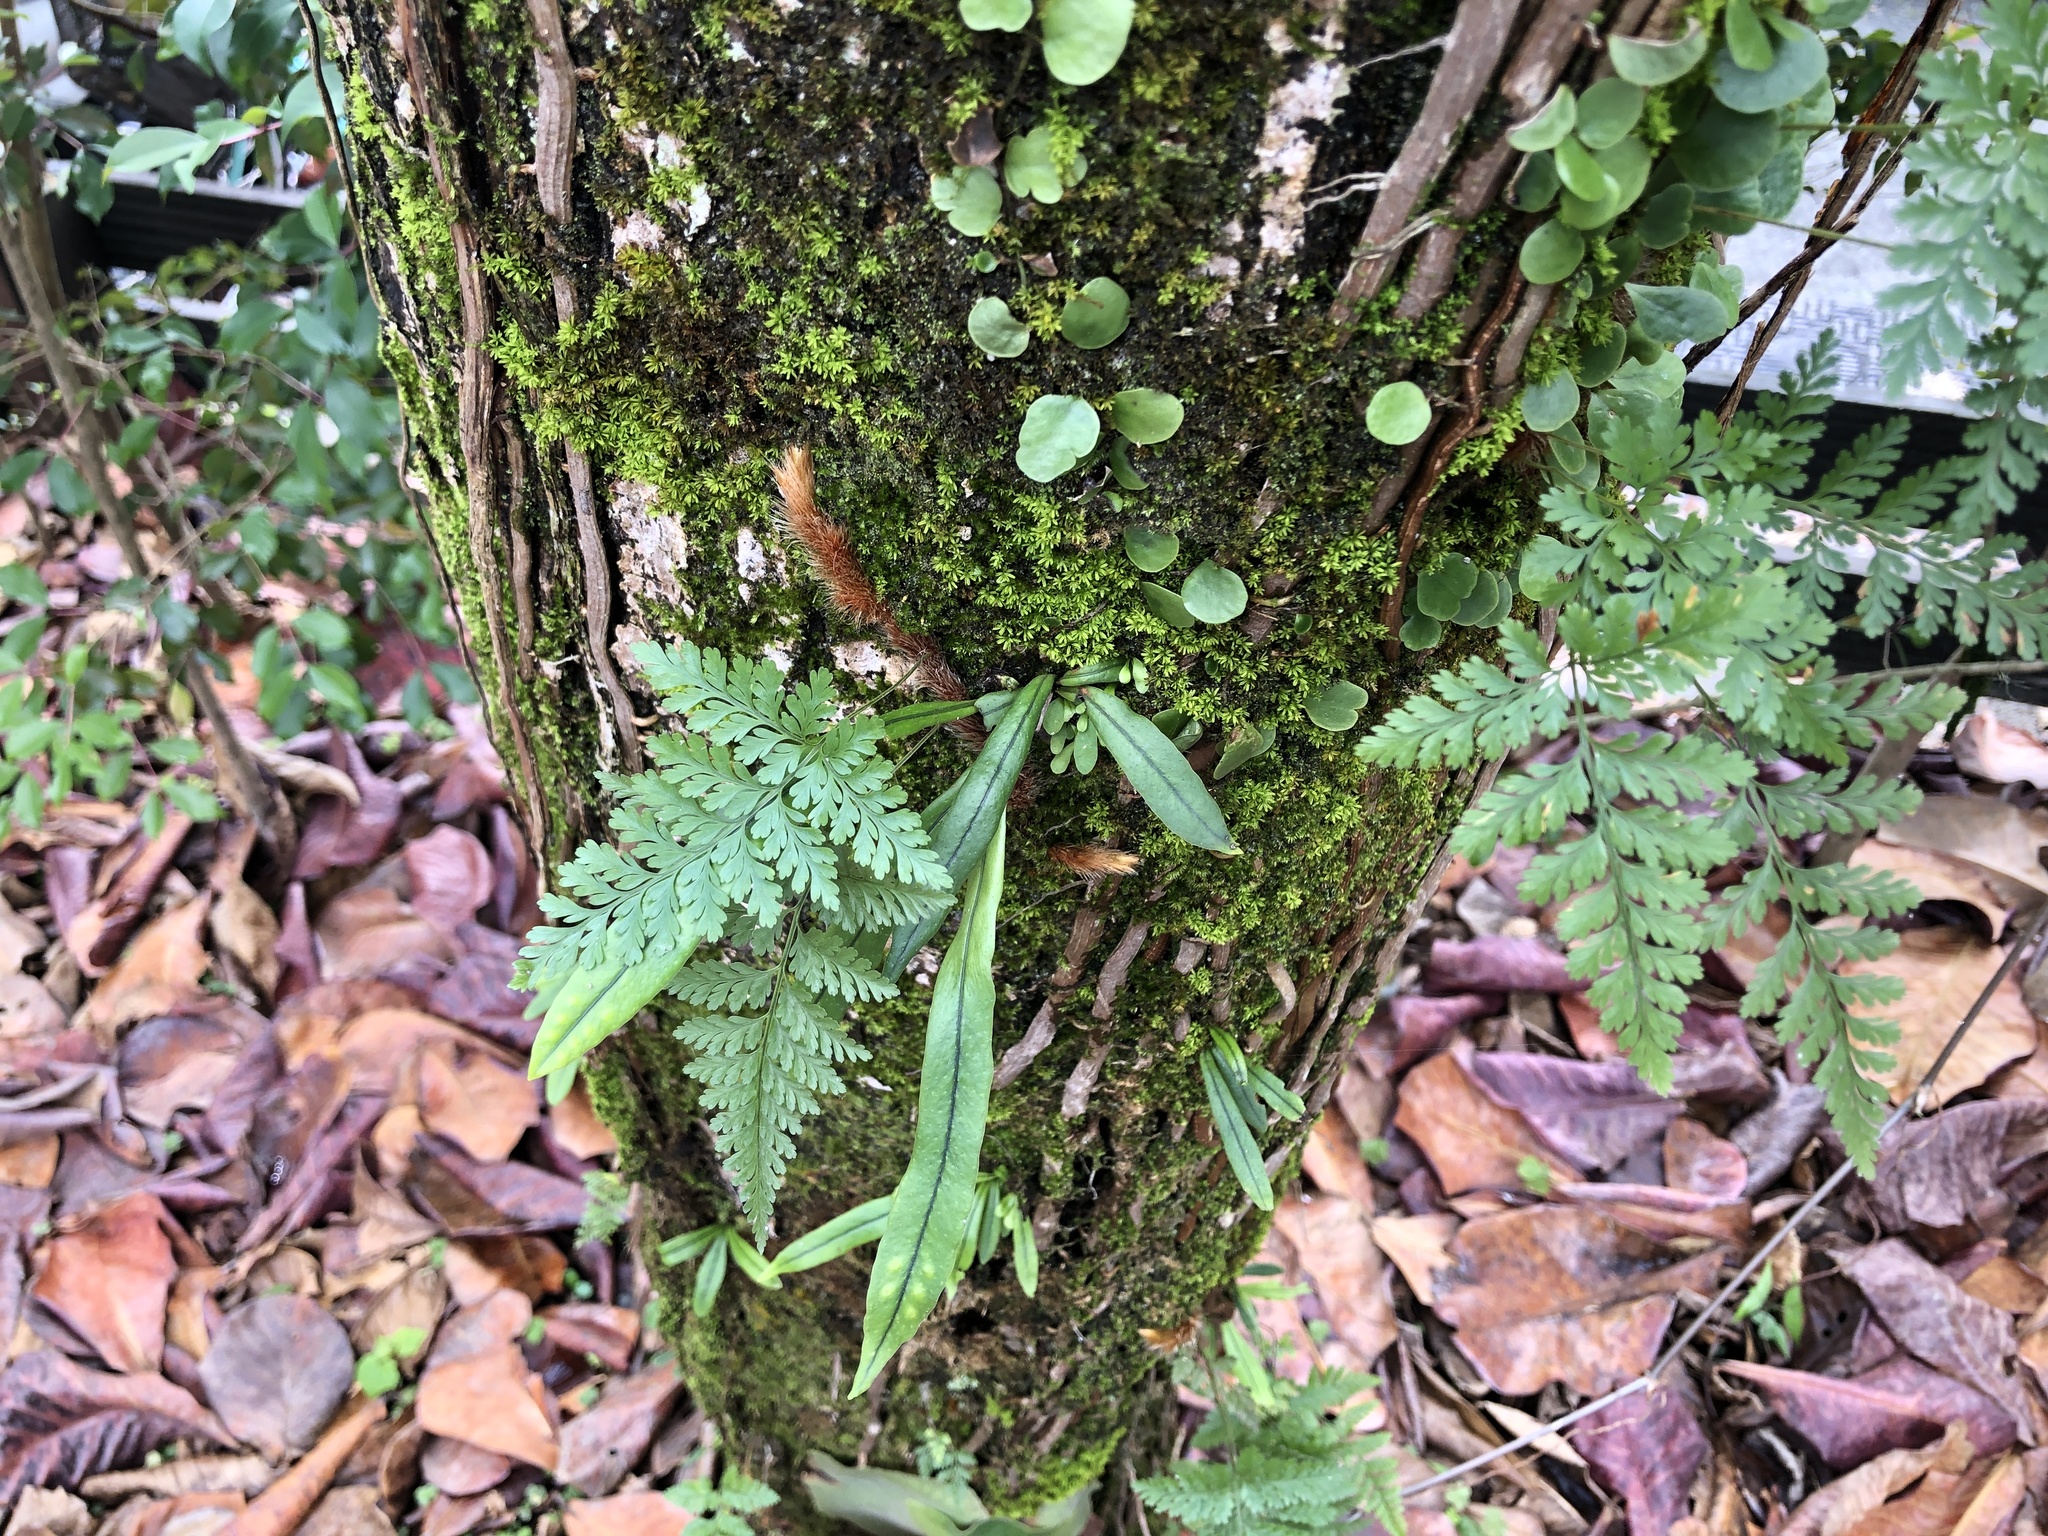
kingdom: Plantae
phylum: Tracheophyta
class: Polypodiopsida
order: Polypodiales
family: Davalliaceae
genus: Davallia
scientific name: Davallia trichomanoides
